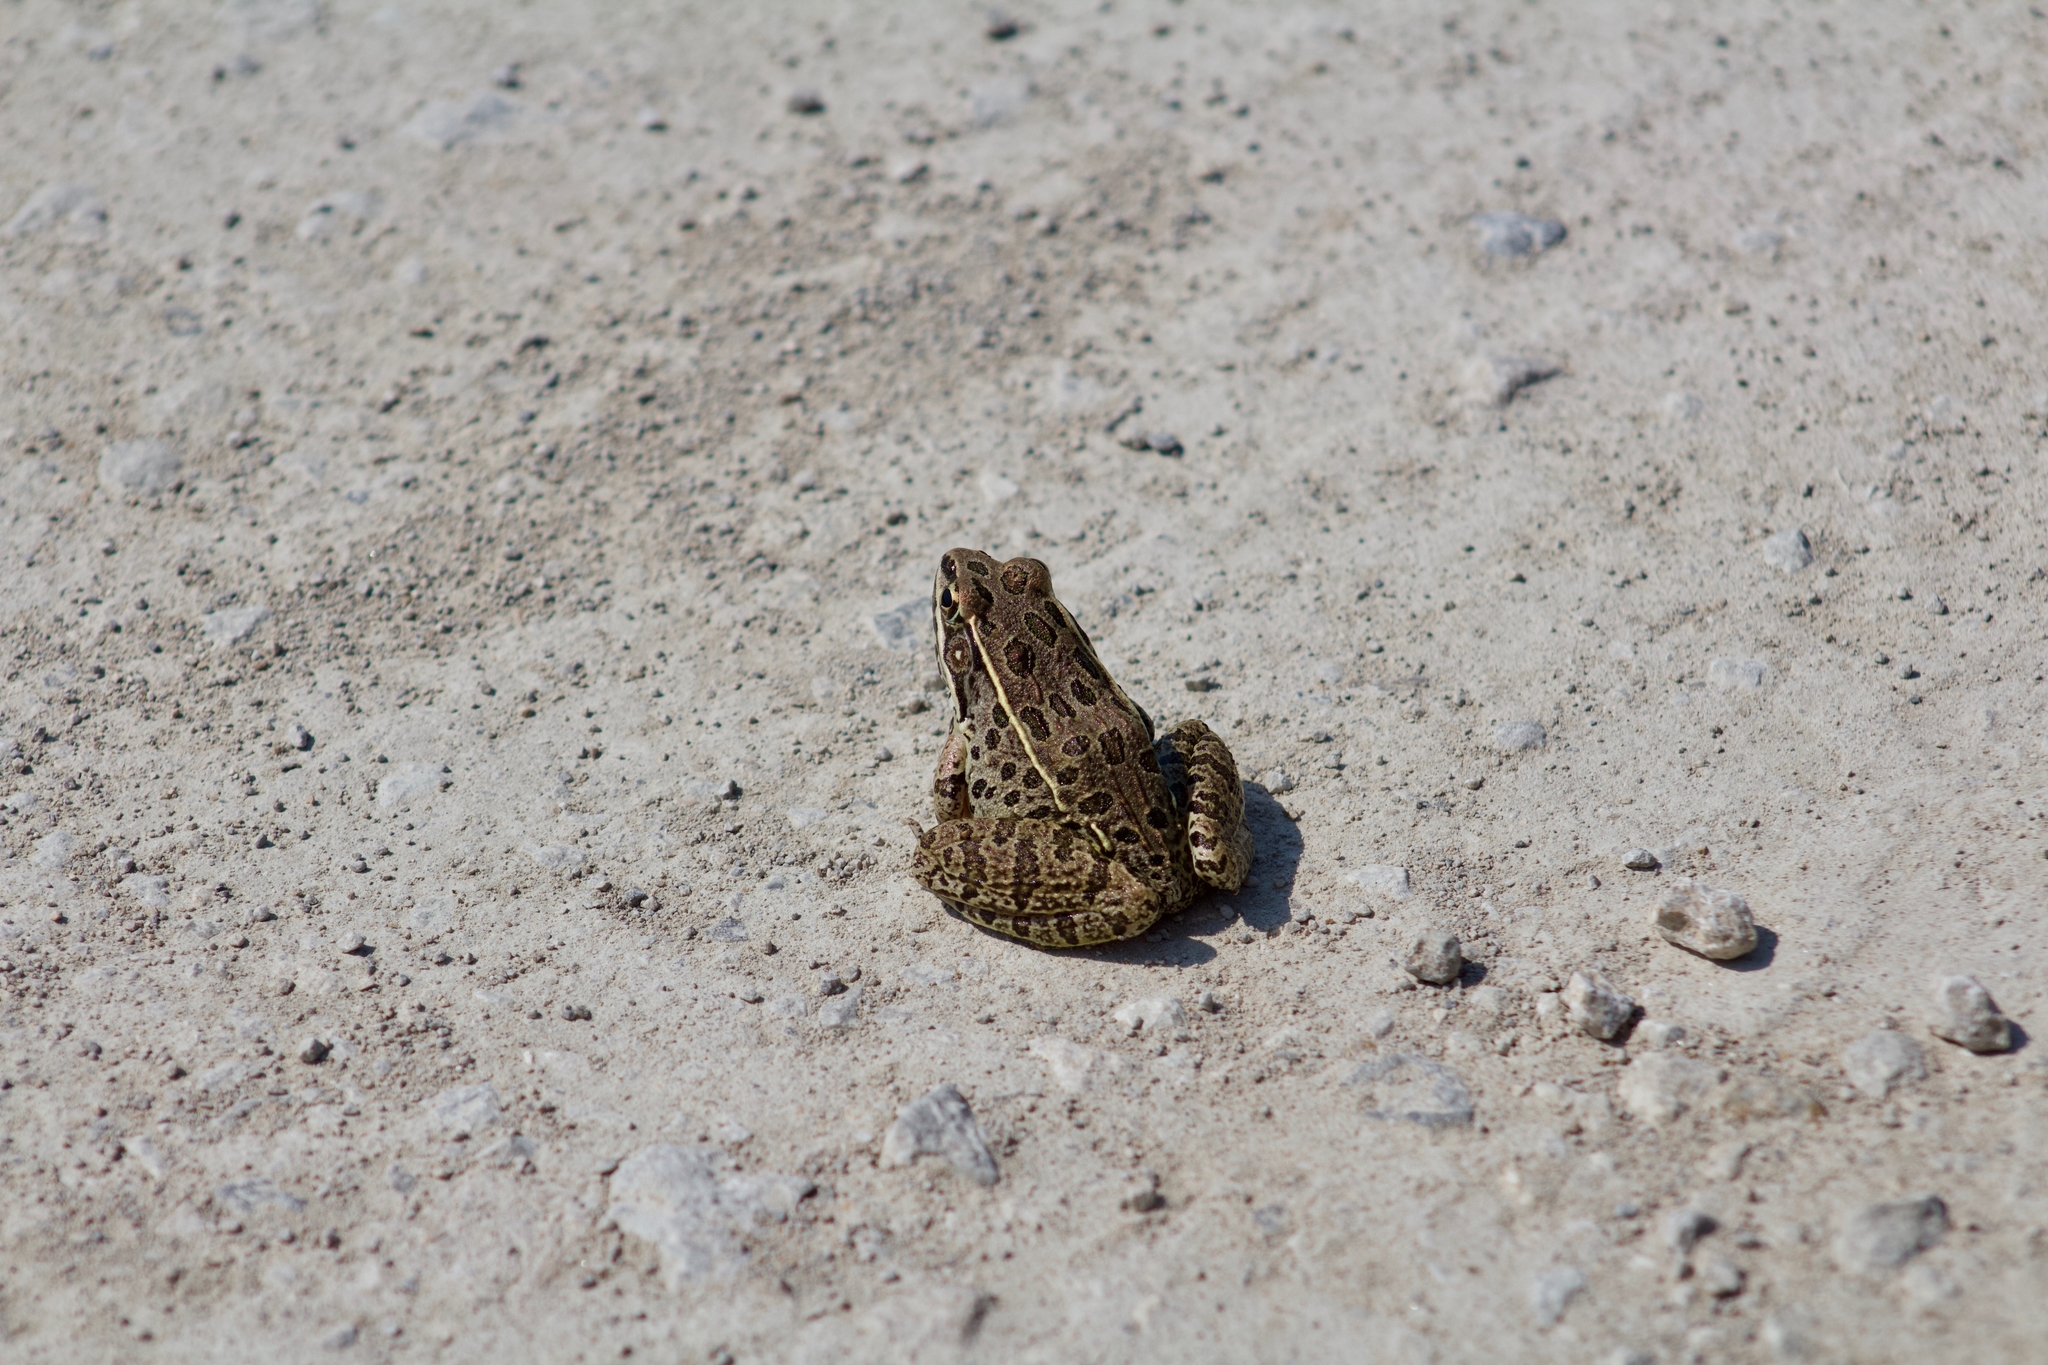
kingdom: Animalia
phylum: Chordata
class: Amphibia
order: Anura
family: Ranidae
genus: Lithobates
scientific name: Lithobates blairi
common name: Plains leopard frog
